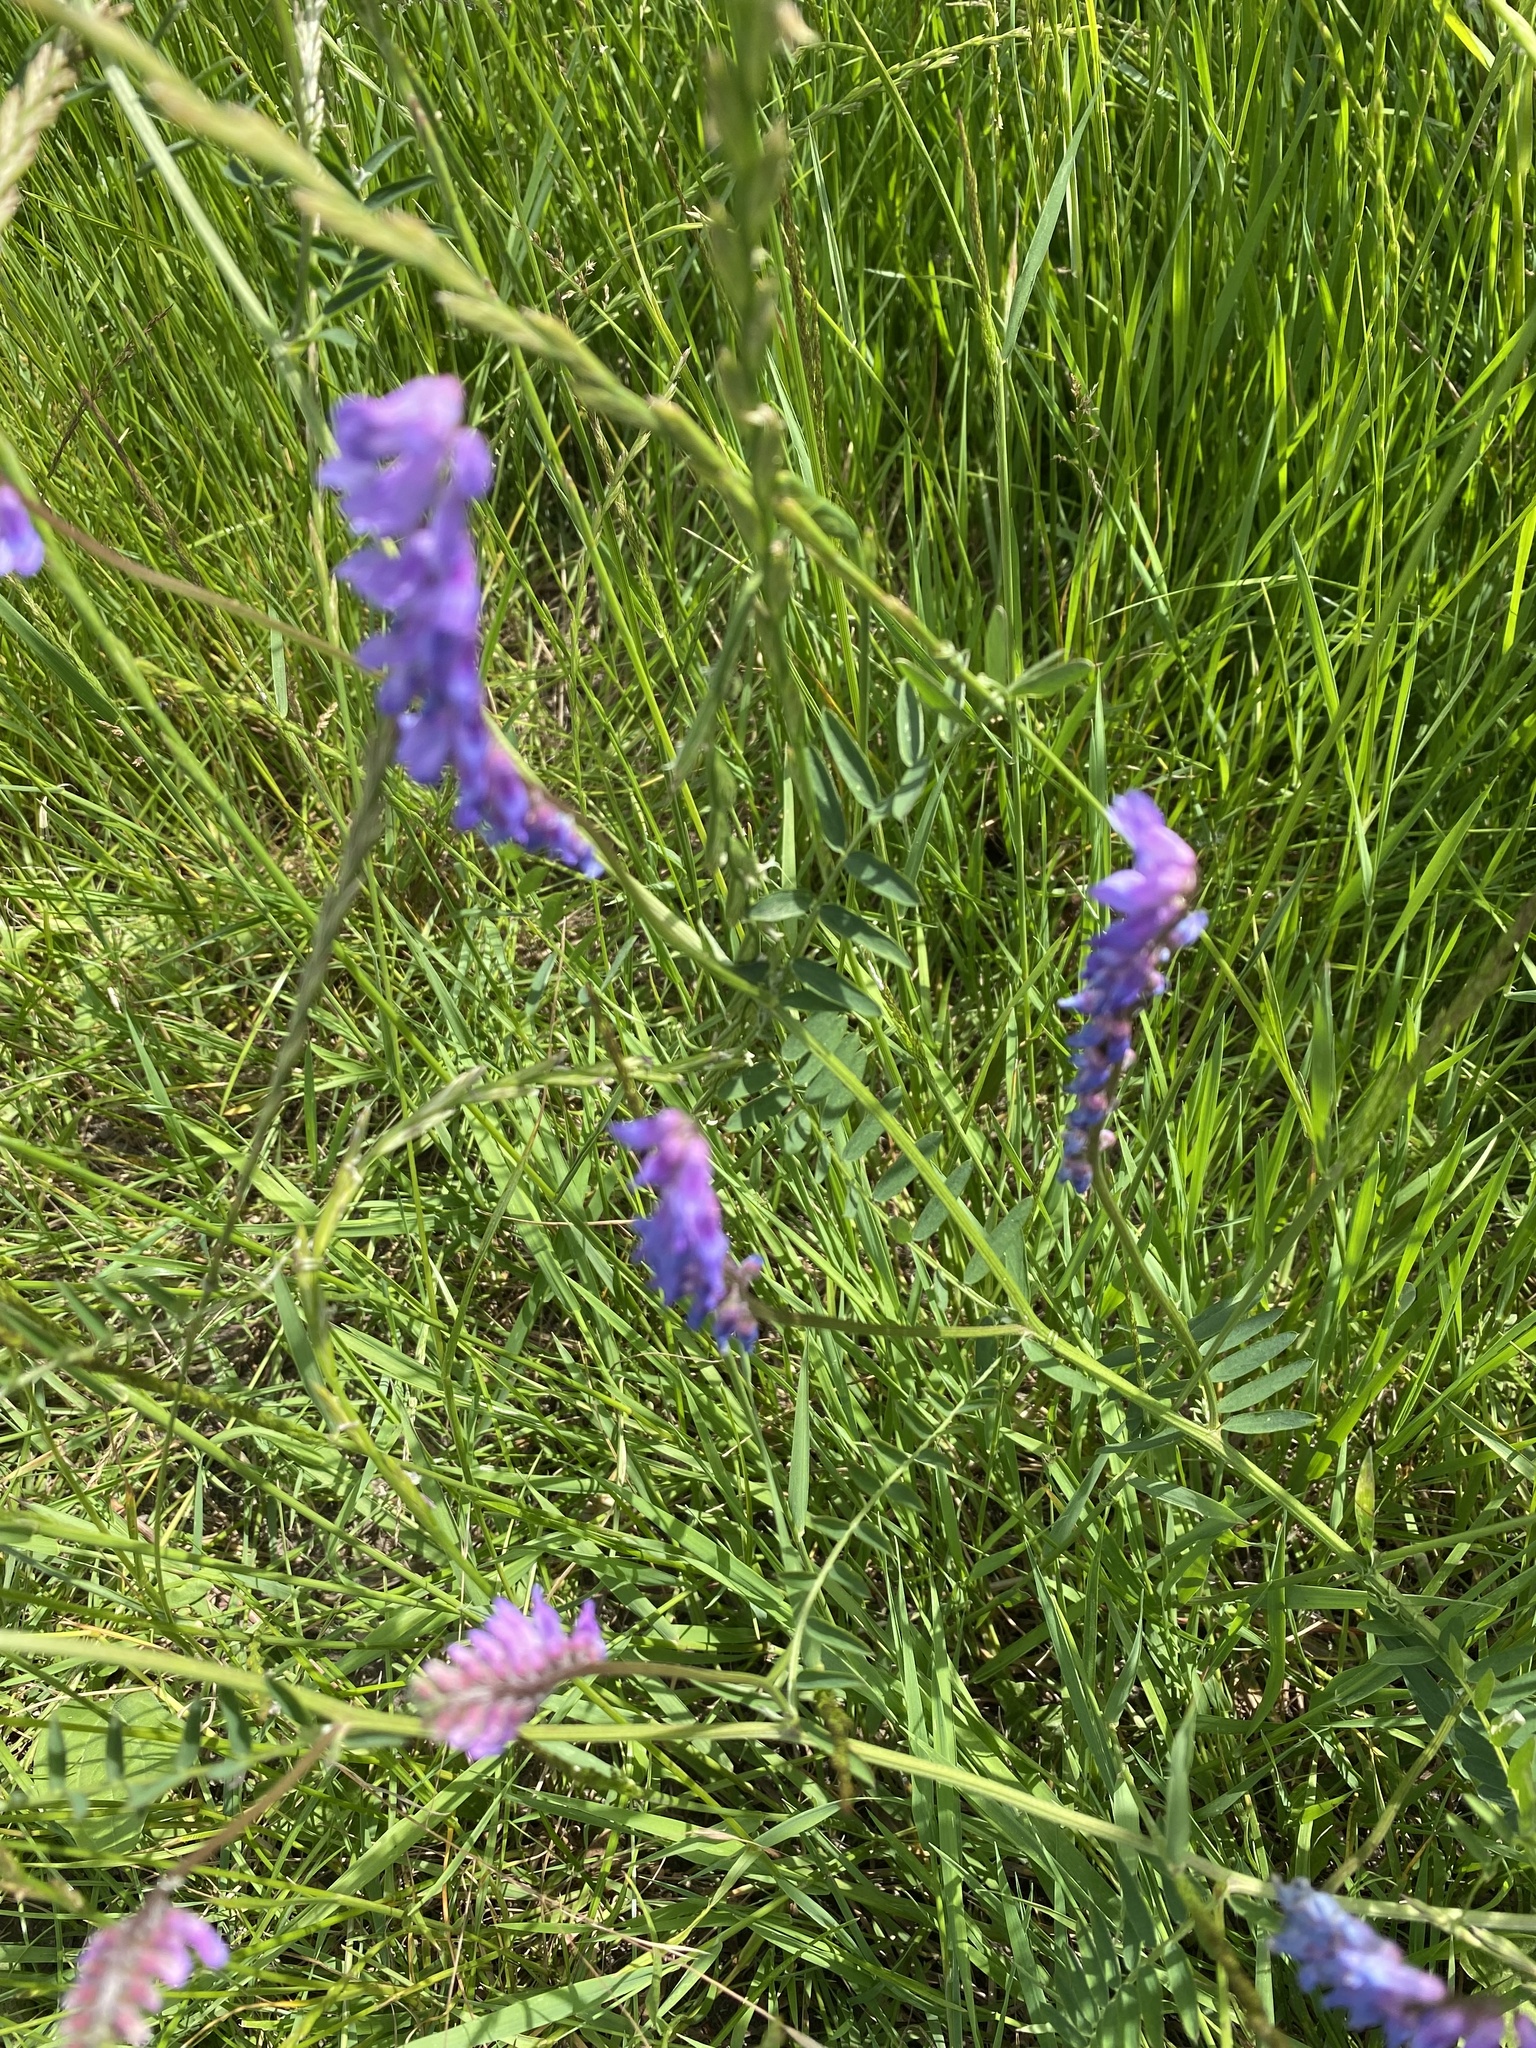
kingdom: Plantae
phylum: Tracheophyta
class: Magnoliopsida
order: Fabales
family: Fabaceae
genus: Vicia
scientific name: Vicia cracca
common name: Bird vetch
